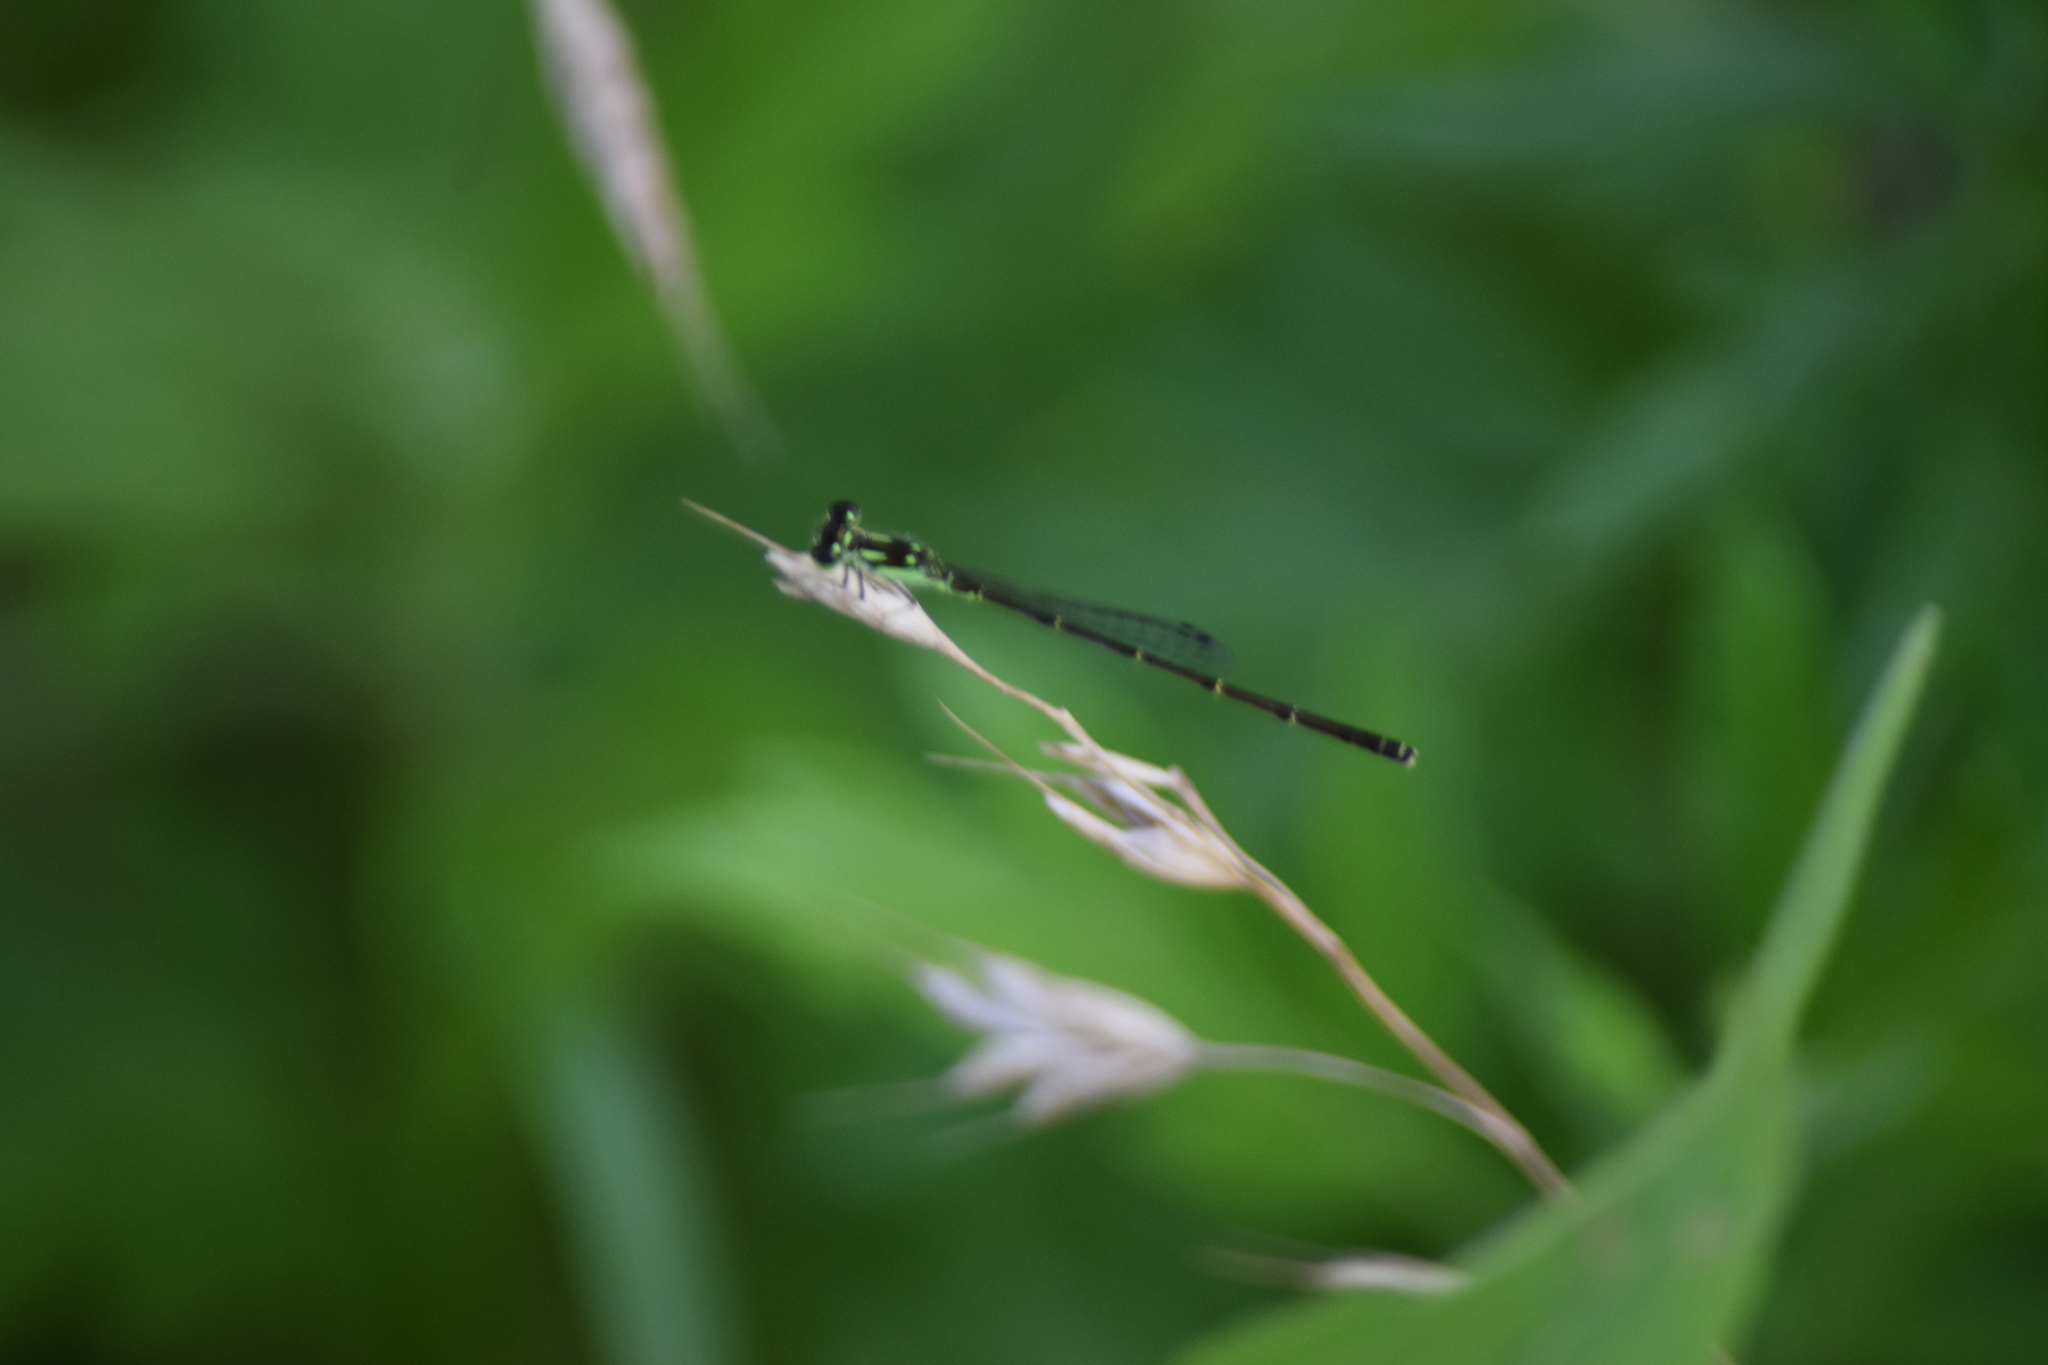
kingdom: Animalia
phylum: Arthropoda
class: Insecta
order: Odonata
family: Coenagrionidae
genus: Ischnura
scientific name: Ischnura posita
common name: Fragile forktail
